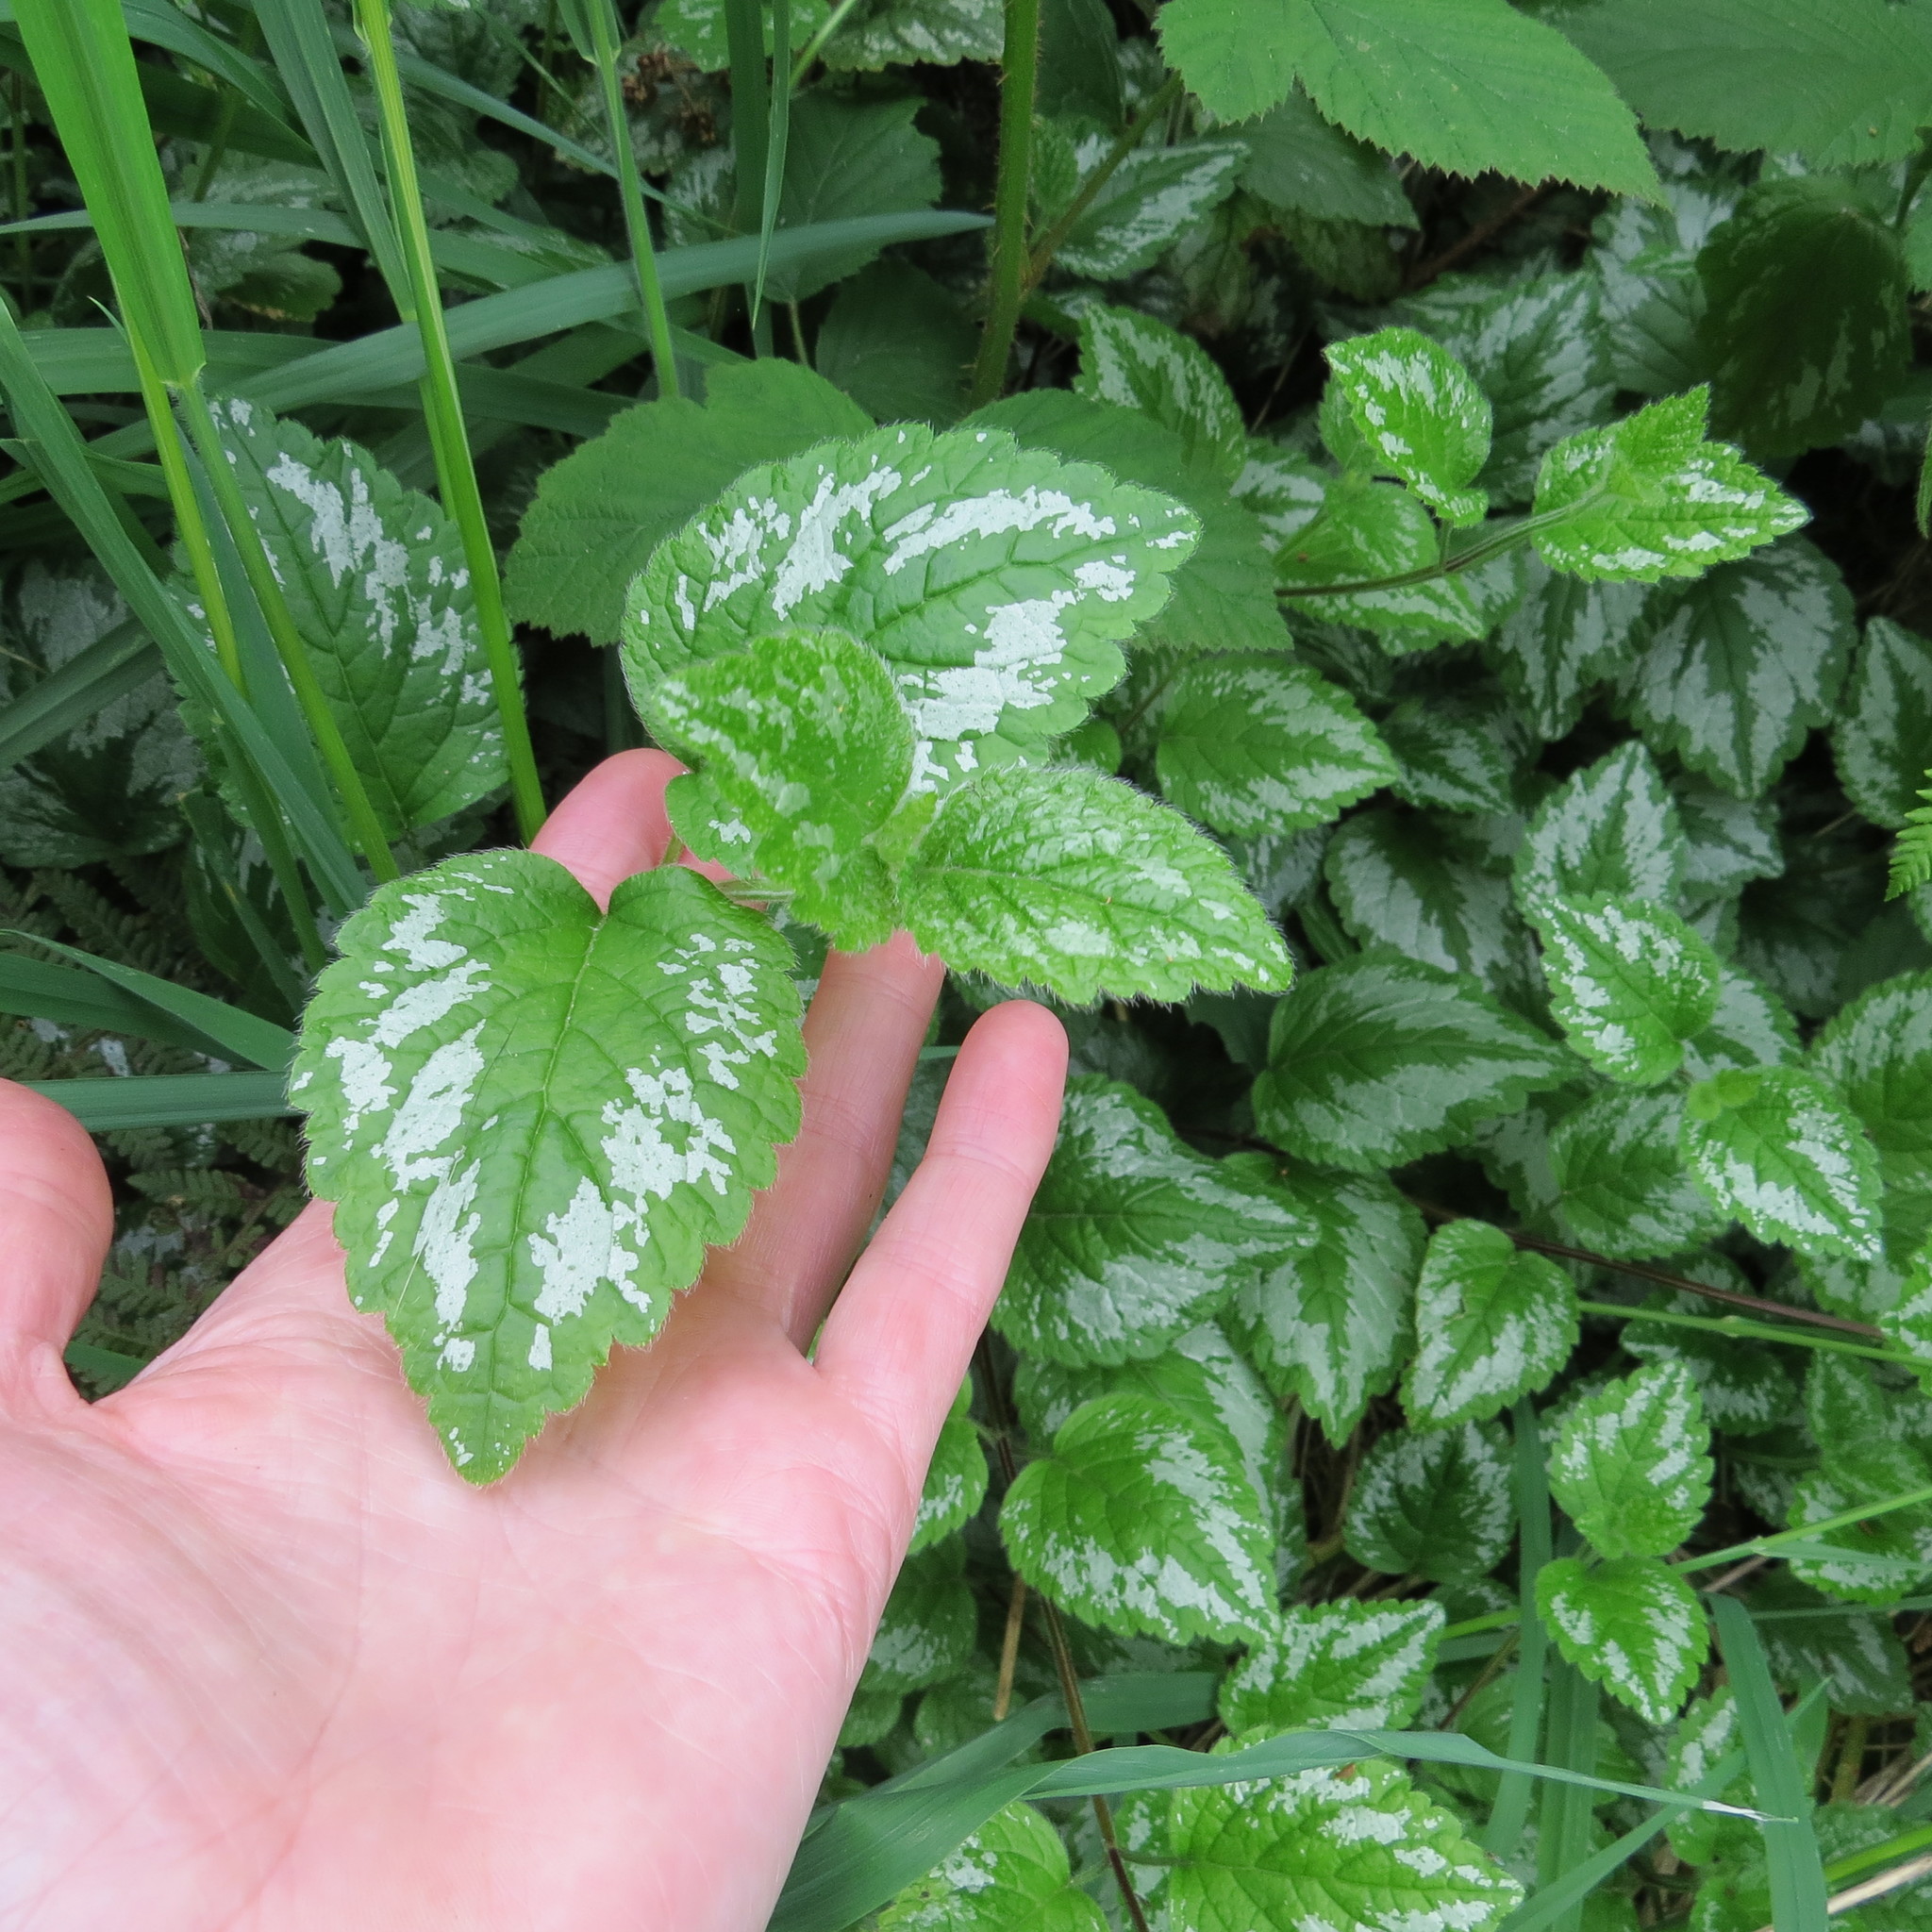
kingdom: Plantae
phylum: Tracheophyta
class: Magnoliopsida
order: Lamiales
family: Lamiaceae
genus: Lamium
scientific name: Lamium galeobdolon
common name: Yellow archangel
